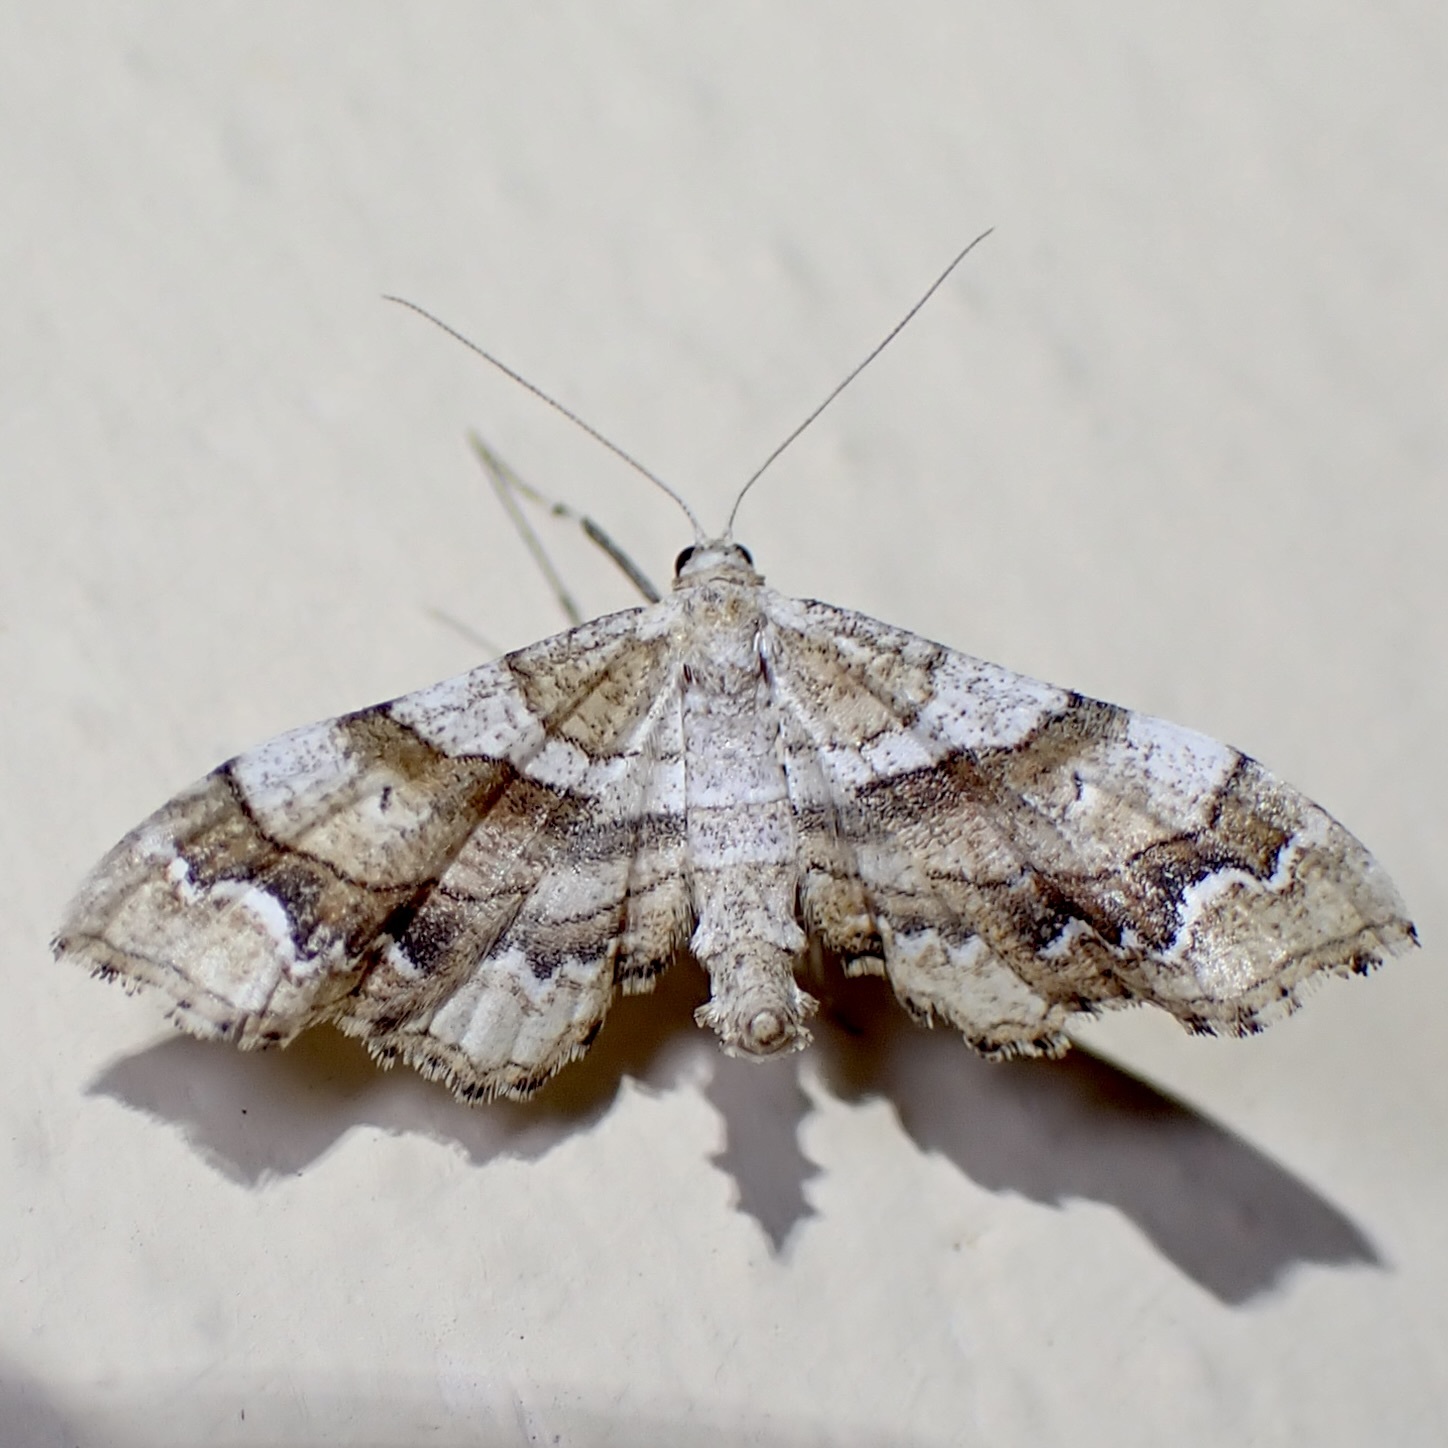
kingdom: Animalia
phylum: Arthropoda
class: Insecta
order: Lepidoptera
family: Geometridae
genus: Odontoptila
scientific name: Odontoptila obrimo
